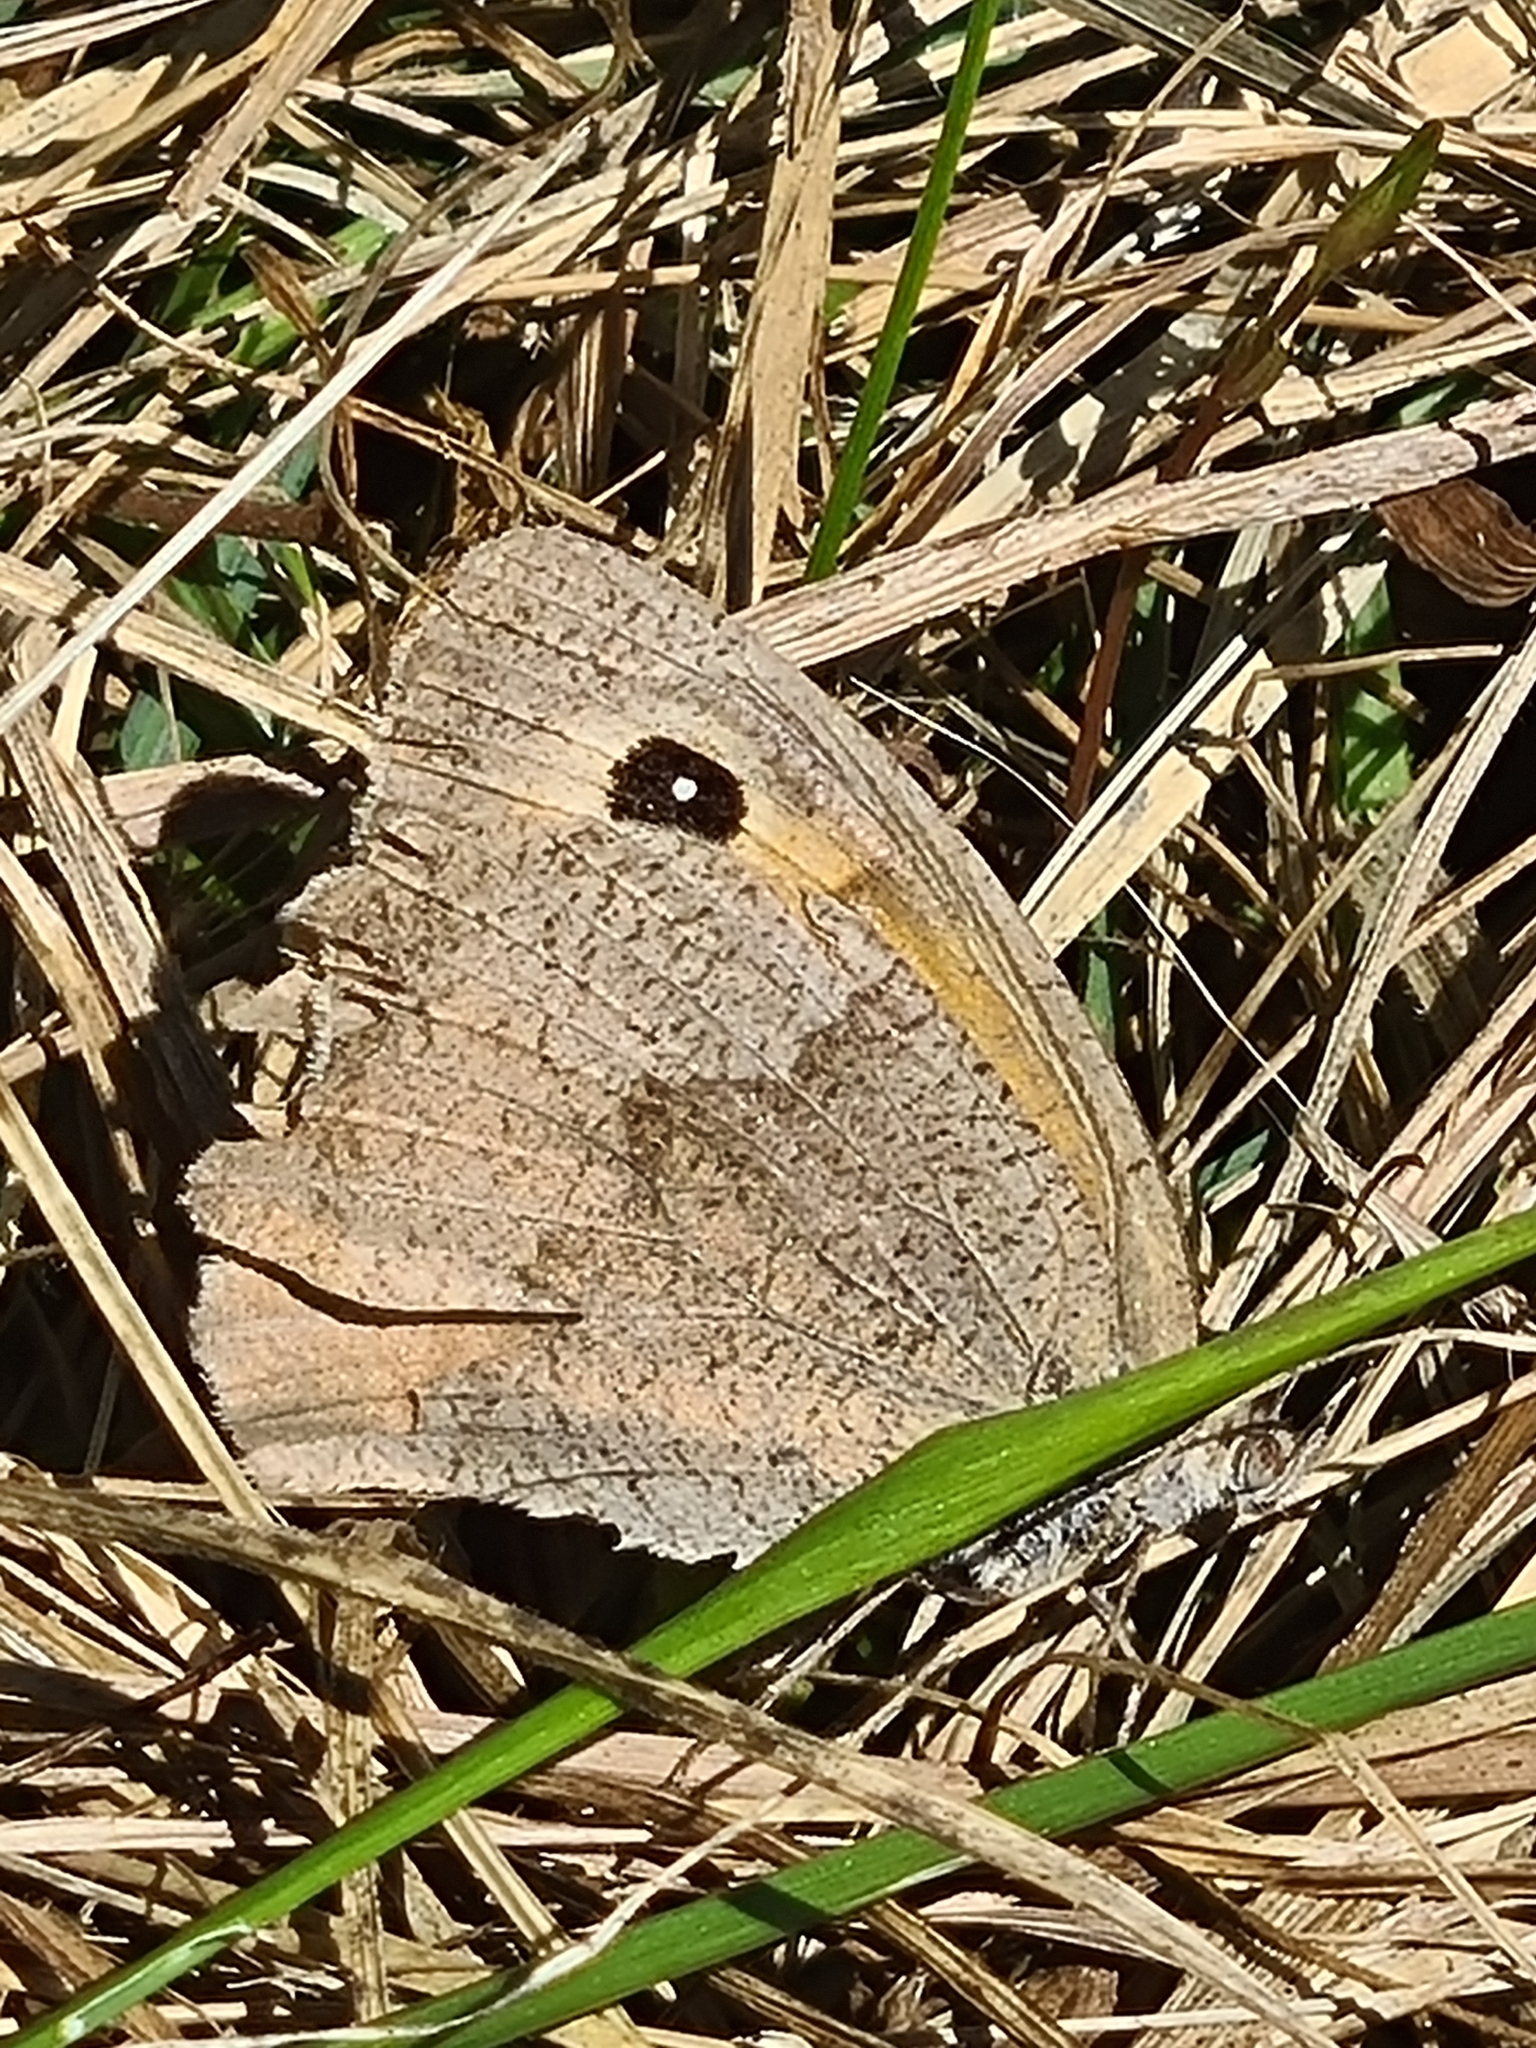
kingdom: Animalia
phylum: Arthropoda
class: Insecta
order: Lepidoptera
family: Nymphalidae
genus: Maniola
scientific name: Maniola jurtina
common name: Meadow brown
